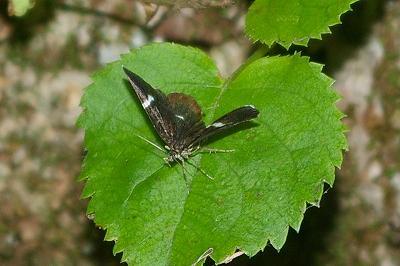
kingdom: Animalia
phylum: Arthropoda
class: Insecta
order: Lepidoptera
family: Geometridae
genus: Trichobaptria
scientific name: Trichobaptria exsecuta
